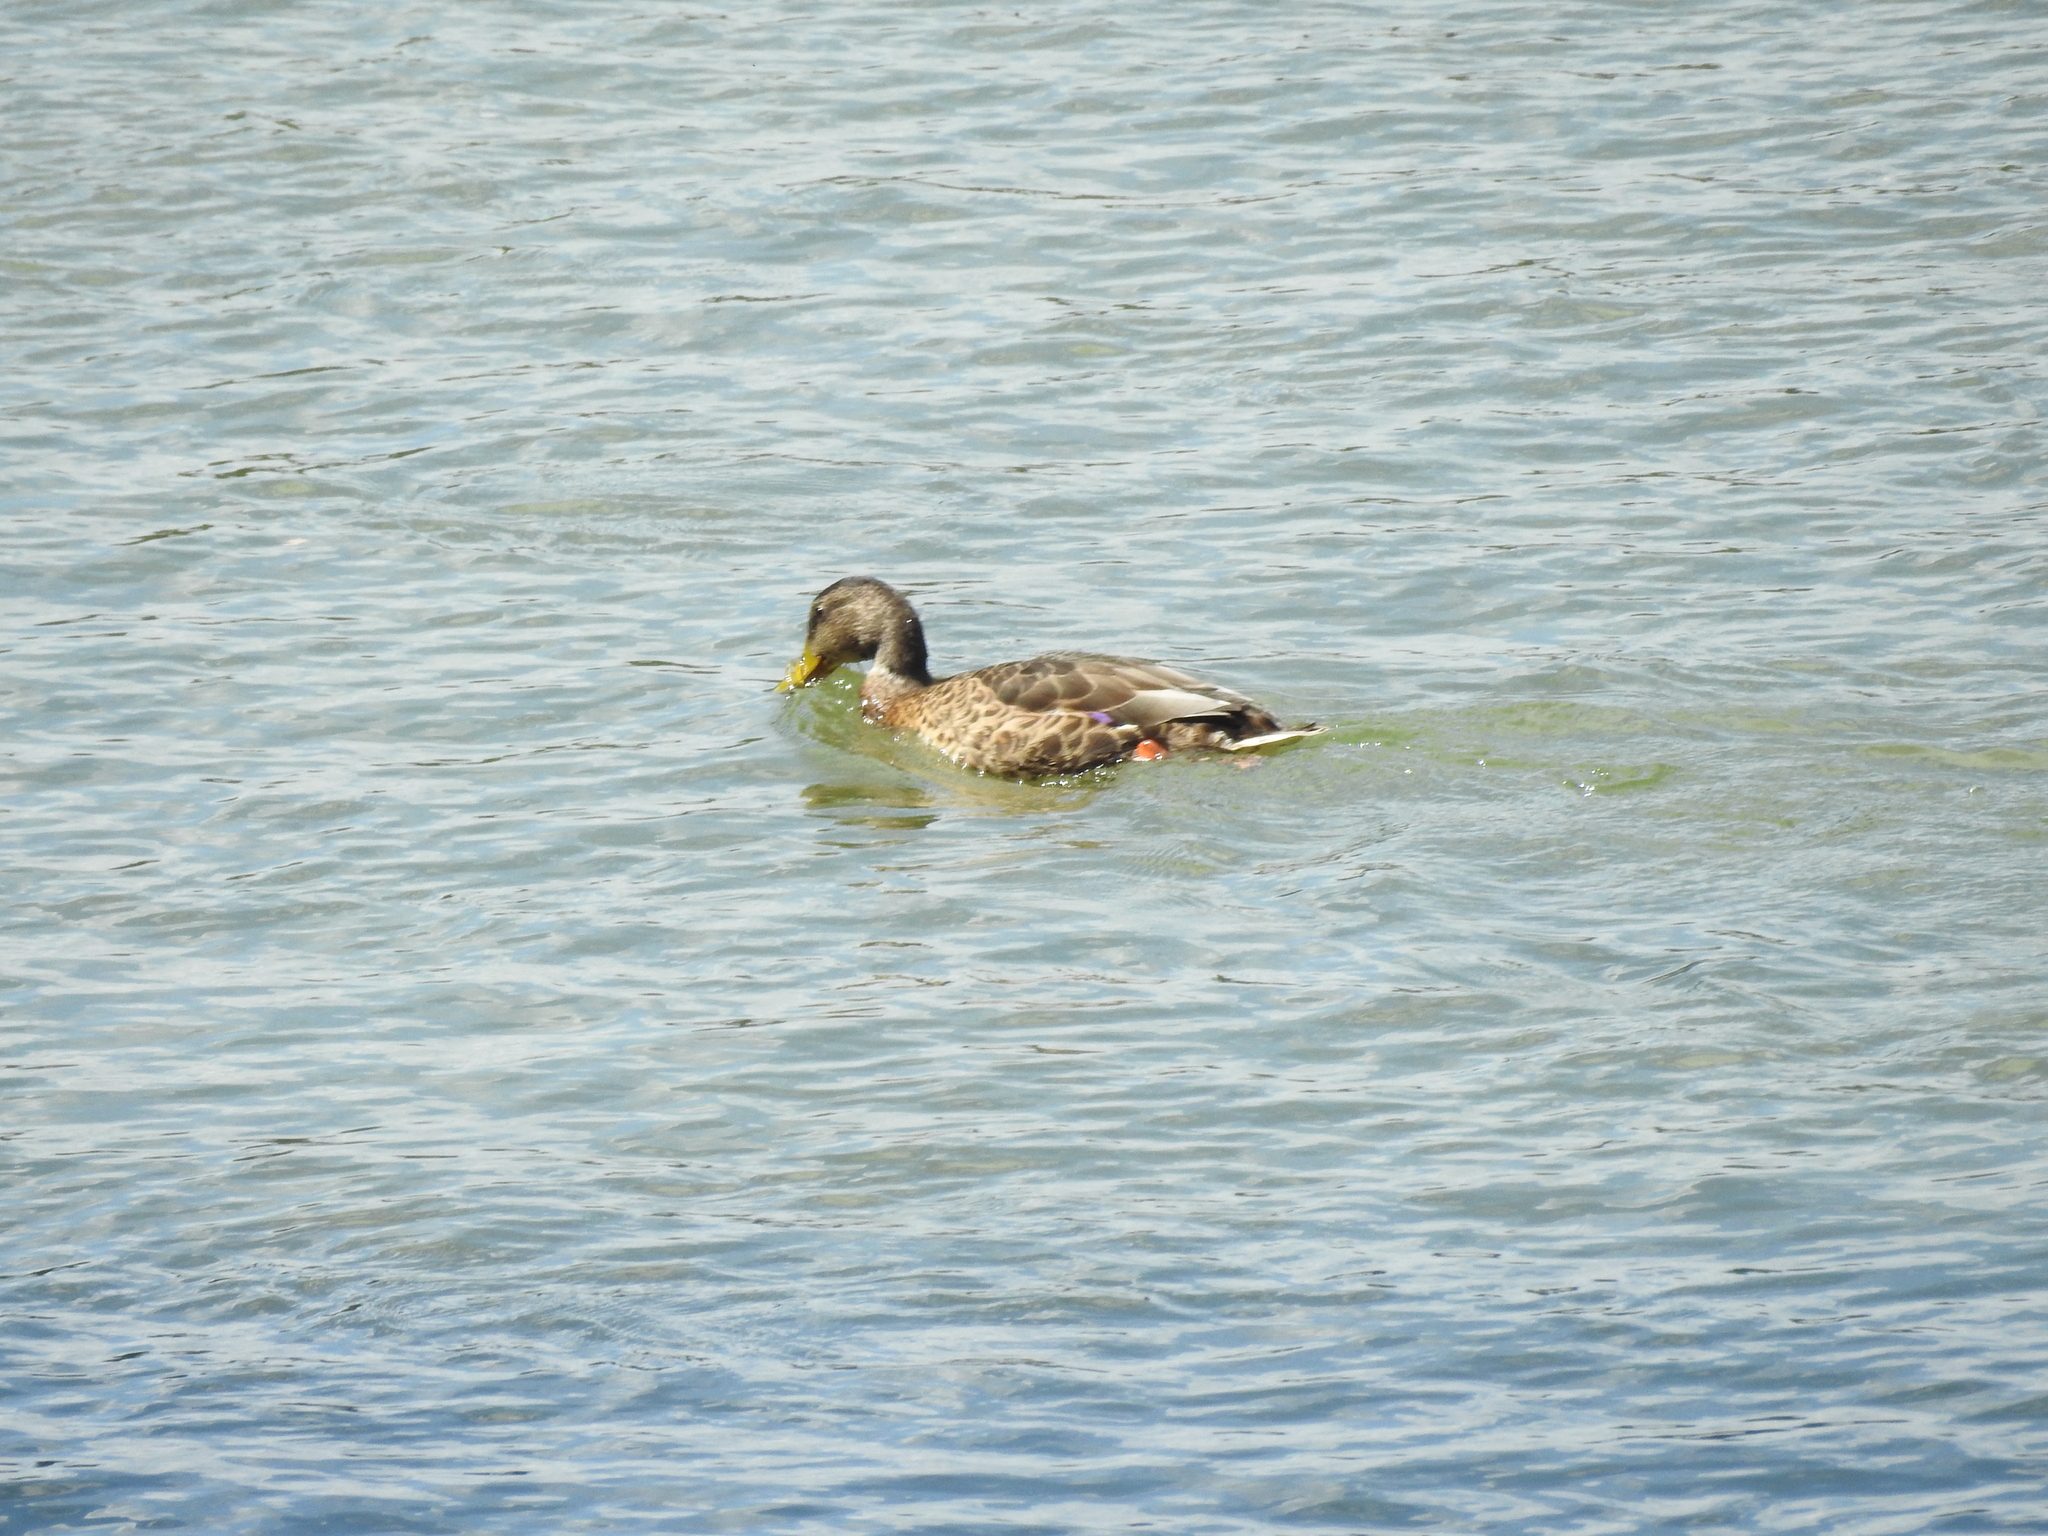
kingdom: Animalia
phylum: Chordata
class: Aves
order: Anseriformes
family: Anatidae
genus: Anas
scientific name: Anas platyrhynchos
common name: Mallard
